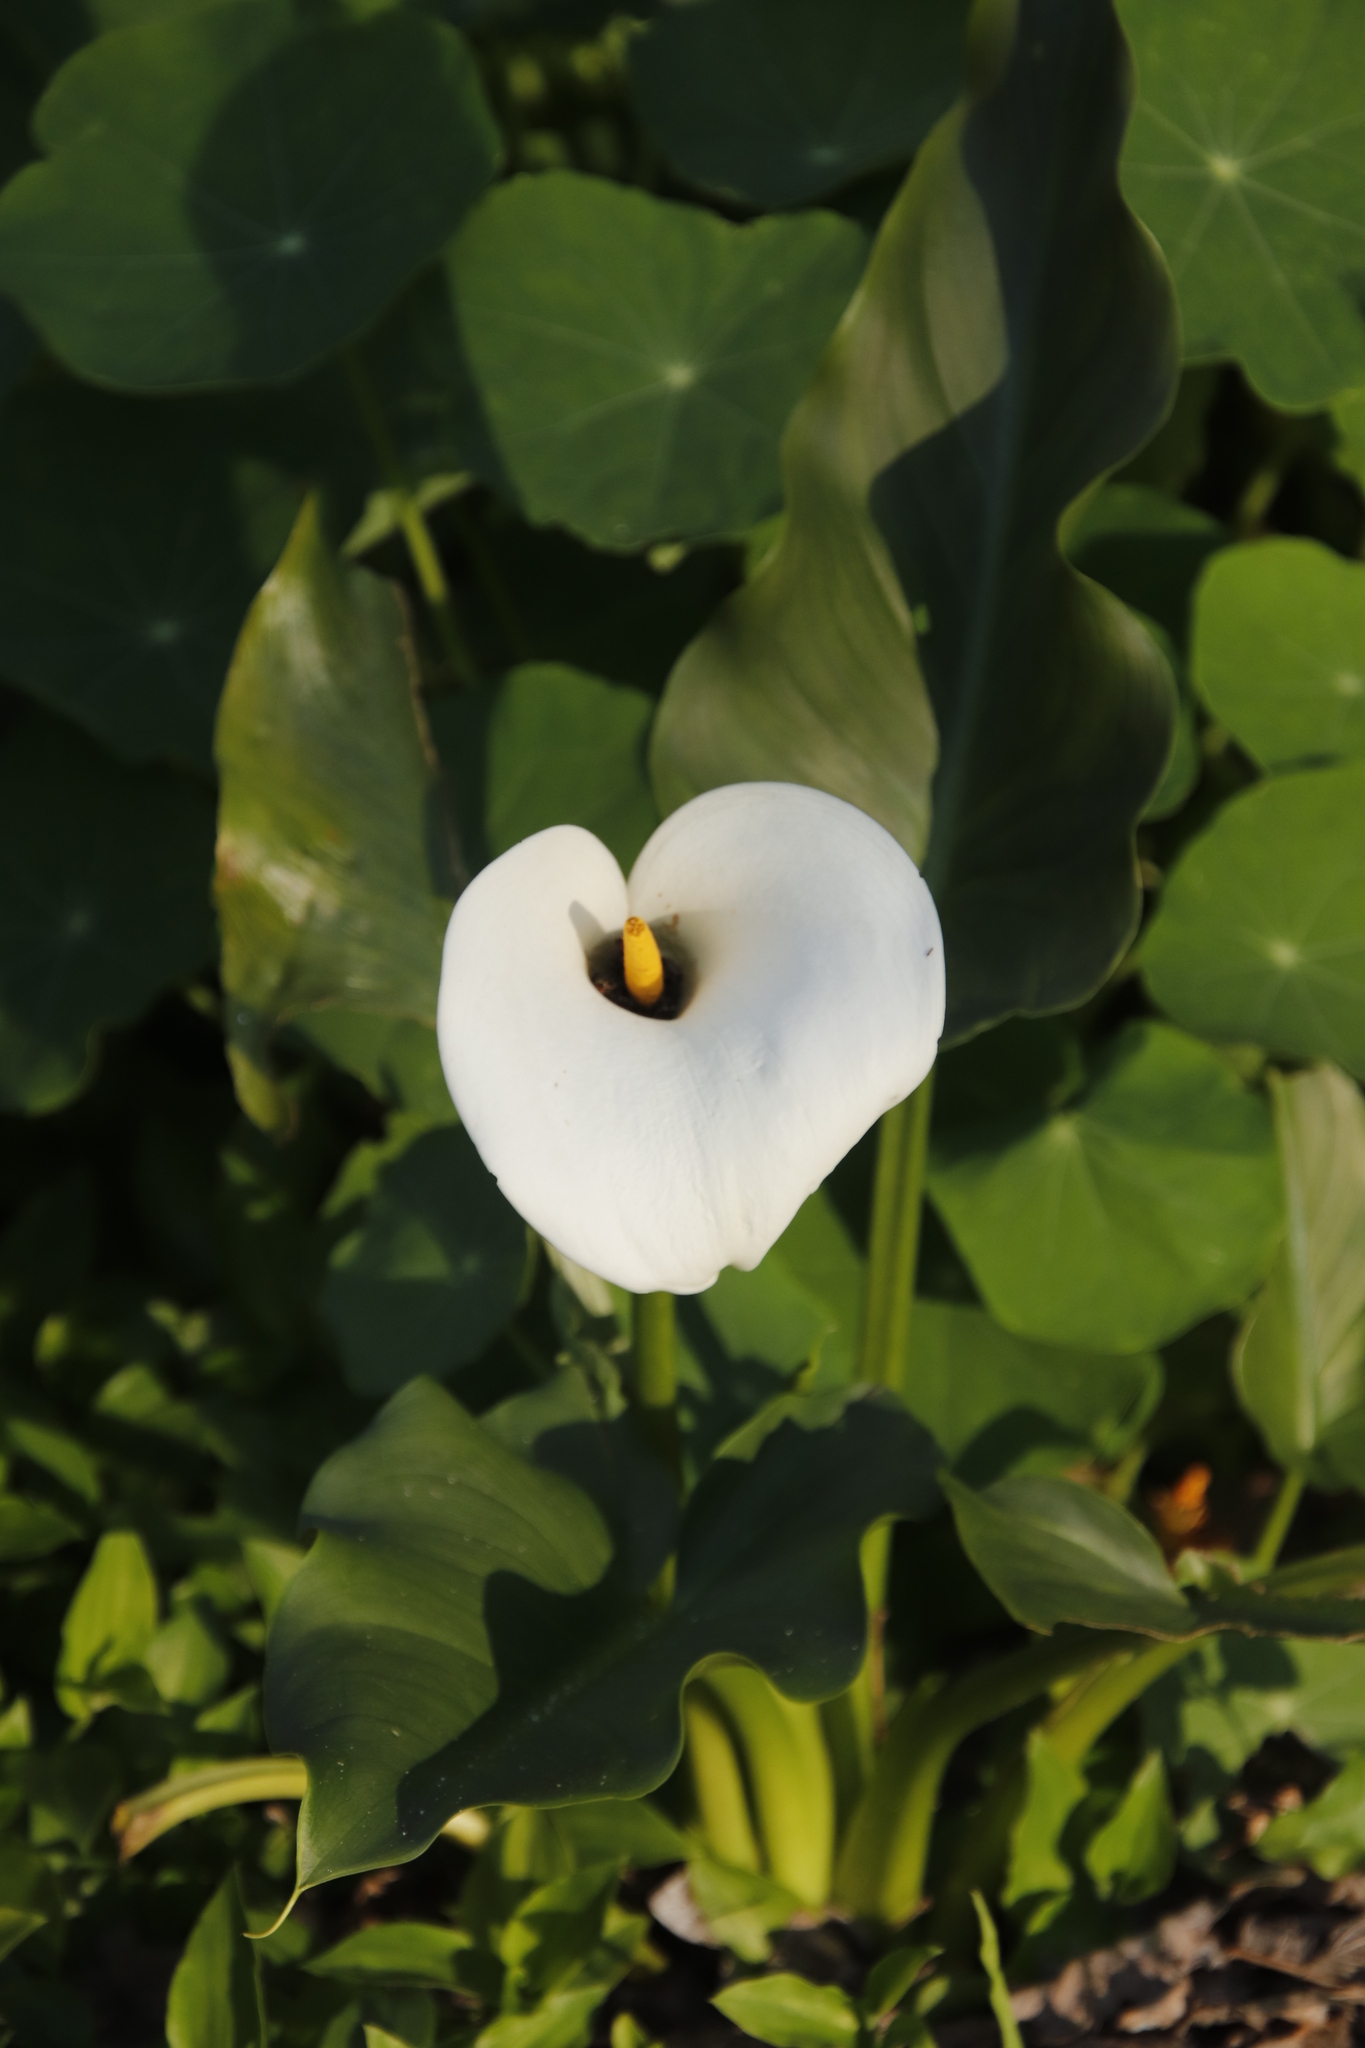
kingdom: Plantae
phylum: Tracheophyta
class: Liliopsida
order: Alismatales
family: Araceae
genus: Zantedeschia
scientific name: Zantedeschia aethiopica
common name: Altar-lily
